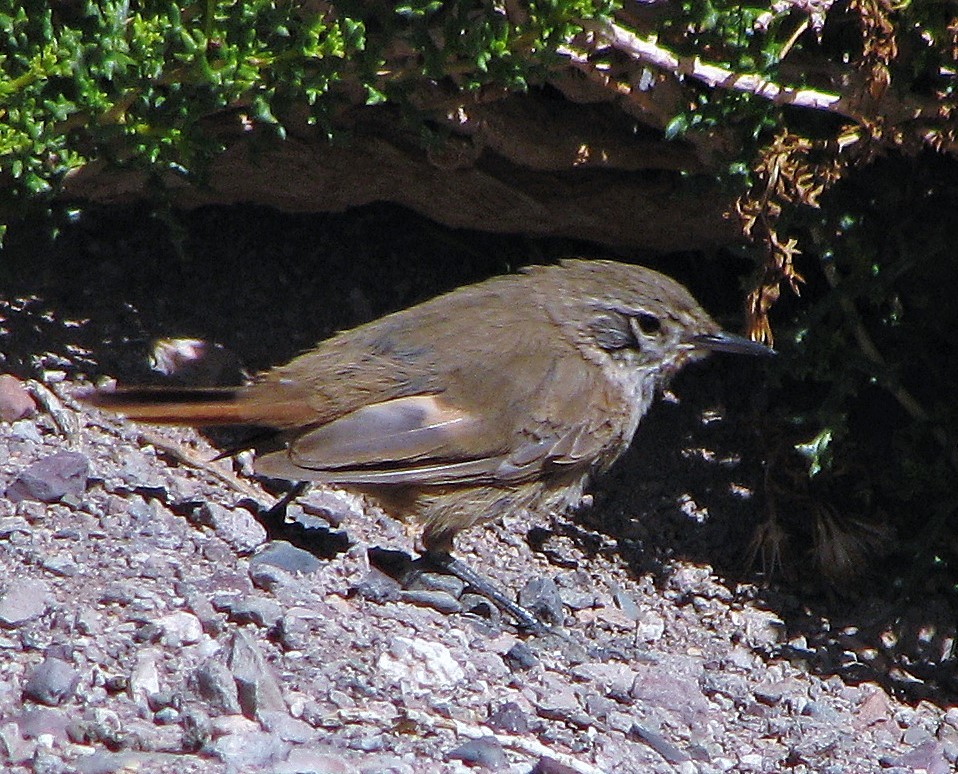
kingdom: Animalia
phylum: Chordata
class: Aves
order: Passeriformes
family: Furnariidae
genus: Asthenes
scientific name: Asthenes modesta
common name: Cordilleran canastero
